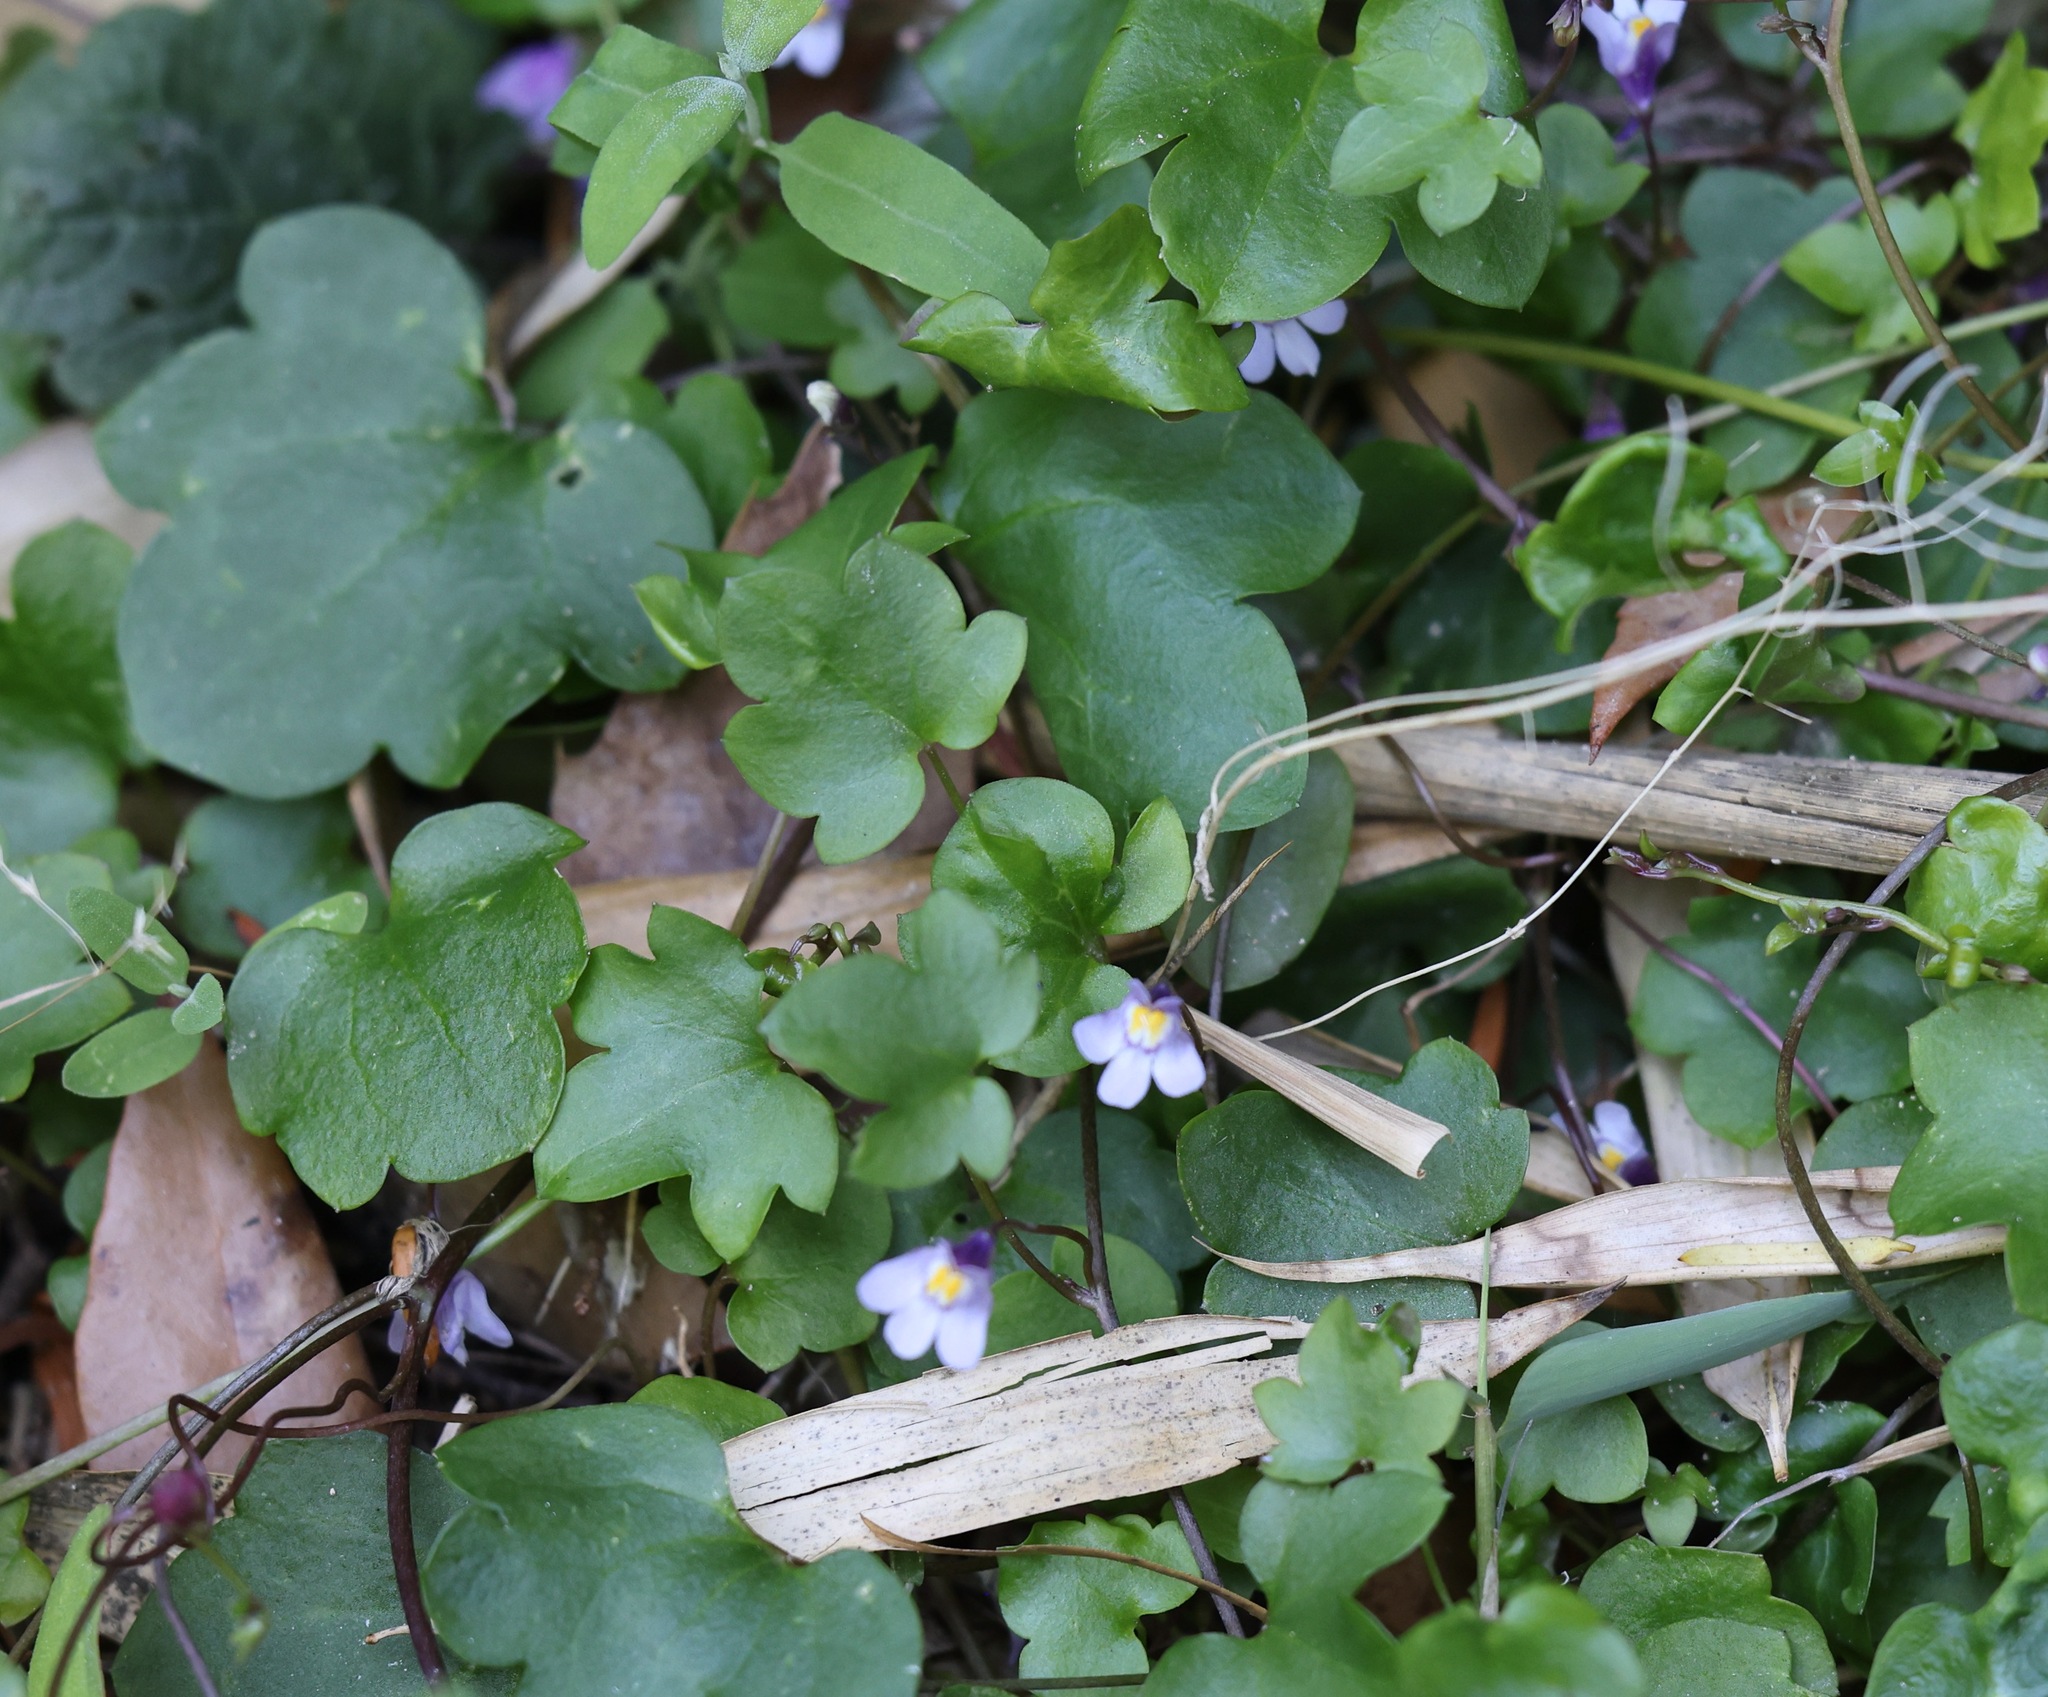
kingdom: Plantae
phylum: Tracheophyta
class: Magnoliopsida
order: Lamiales
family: Plantaginaceae
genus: Cymbalaria
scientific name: Cymbalaria muralis
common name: Ivy-leaved toadflax
